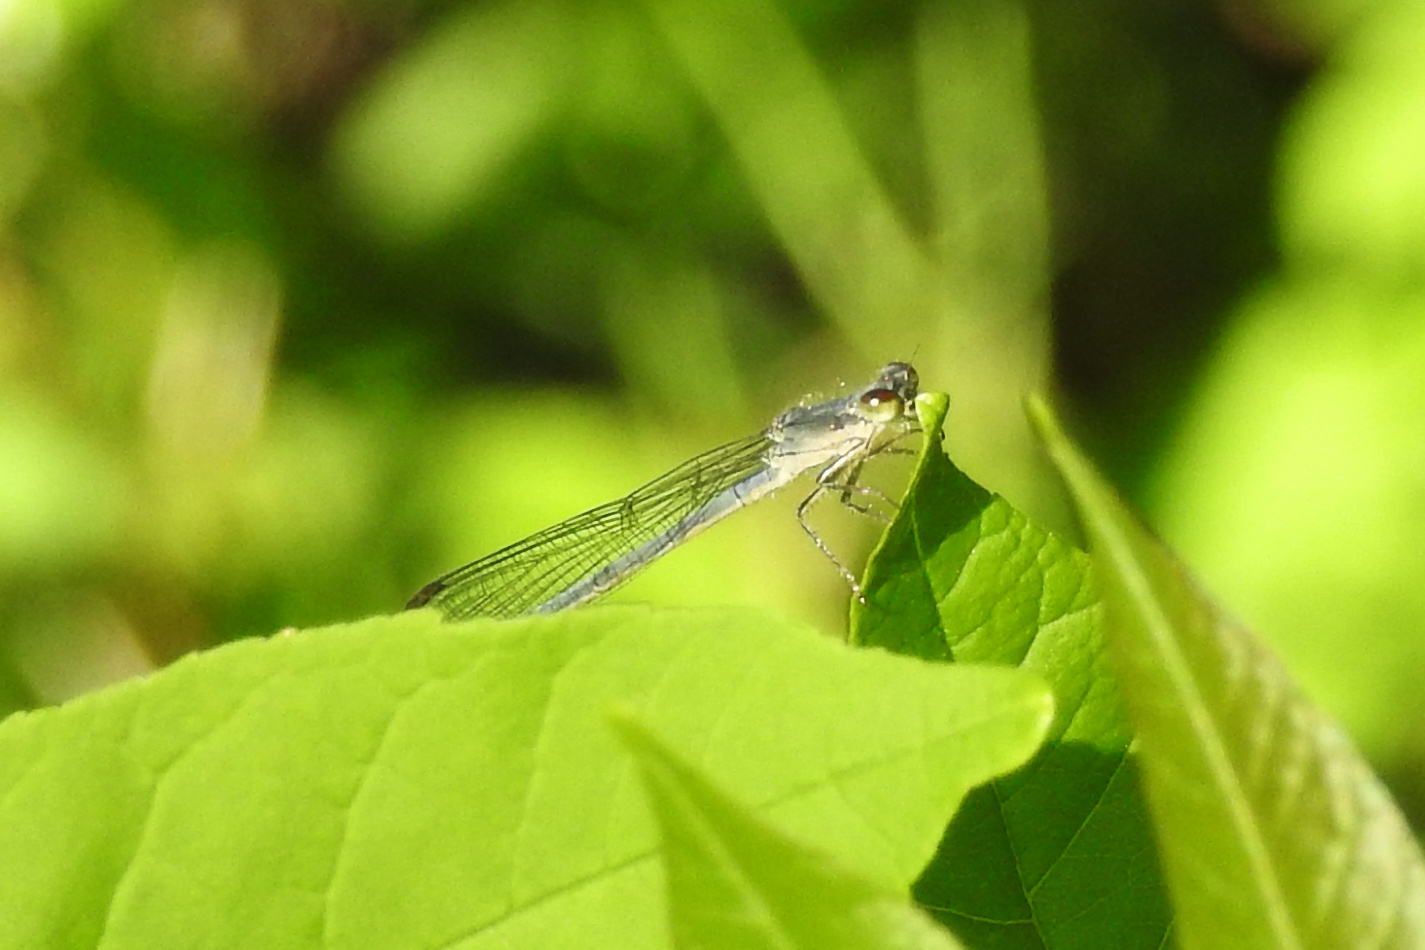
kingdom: Animalia
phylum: Arthropoda
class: Insecta
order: Odonata
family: Coenagrionidae
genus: Ischnura
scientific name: Ischnura posita
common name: Fragile forktail
